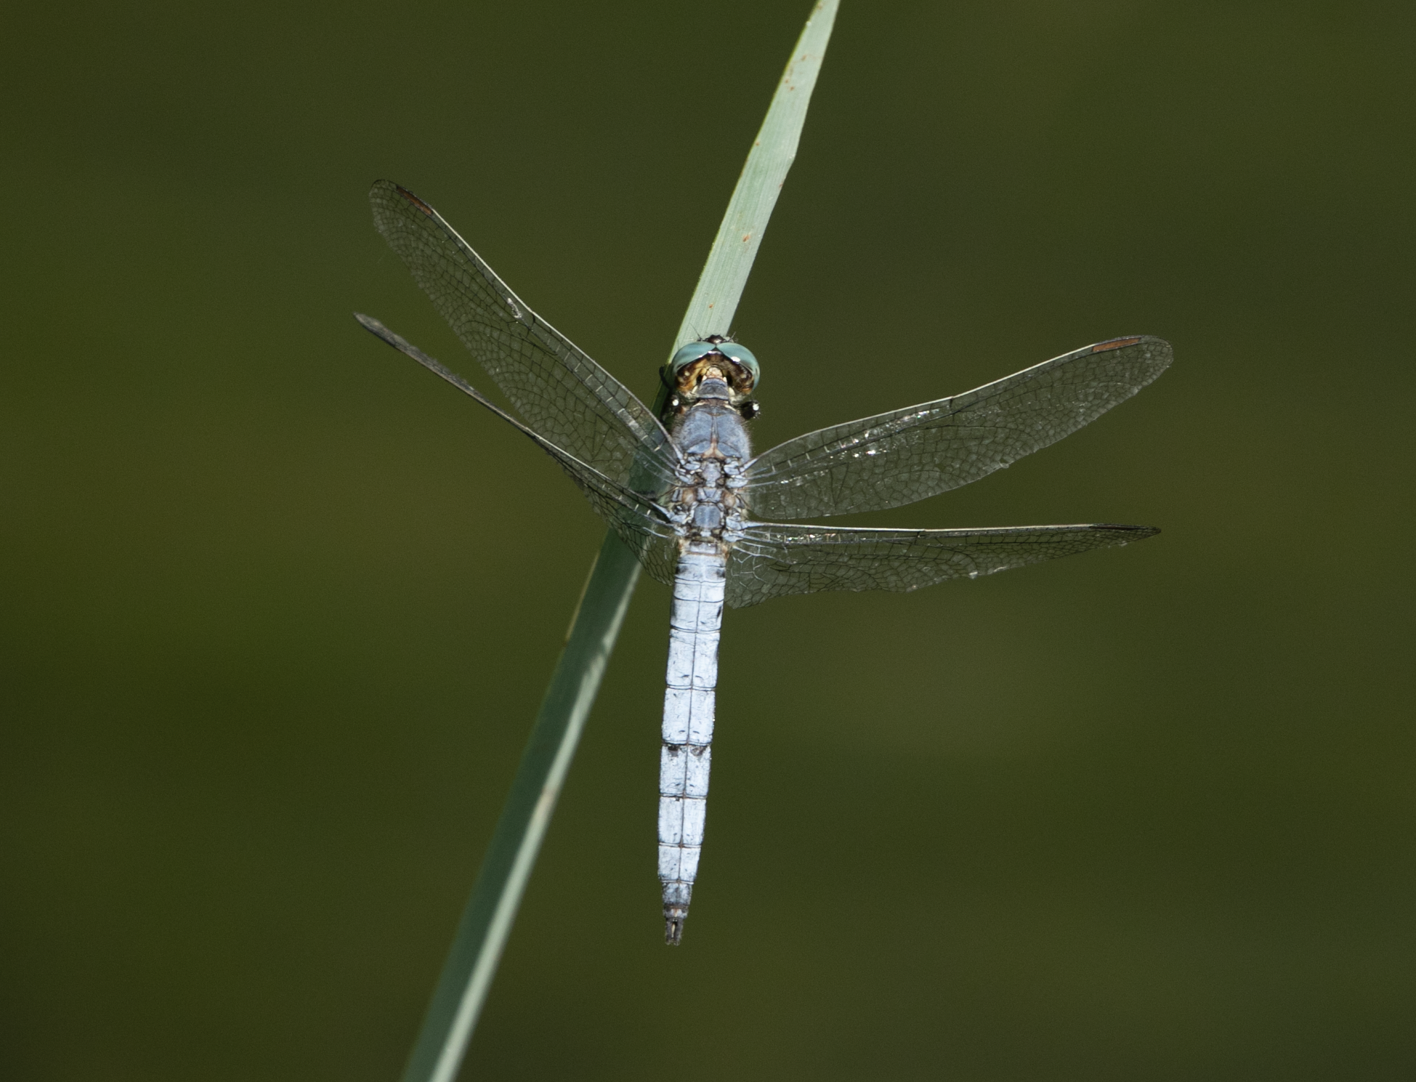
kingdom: Animalia
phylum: Arthropoda
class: Insecta
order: Odonata
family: Libellulidae
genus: Orthetrum
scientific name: Orthetrum coerulescens
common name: Keeled skimmer
